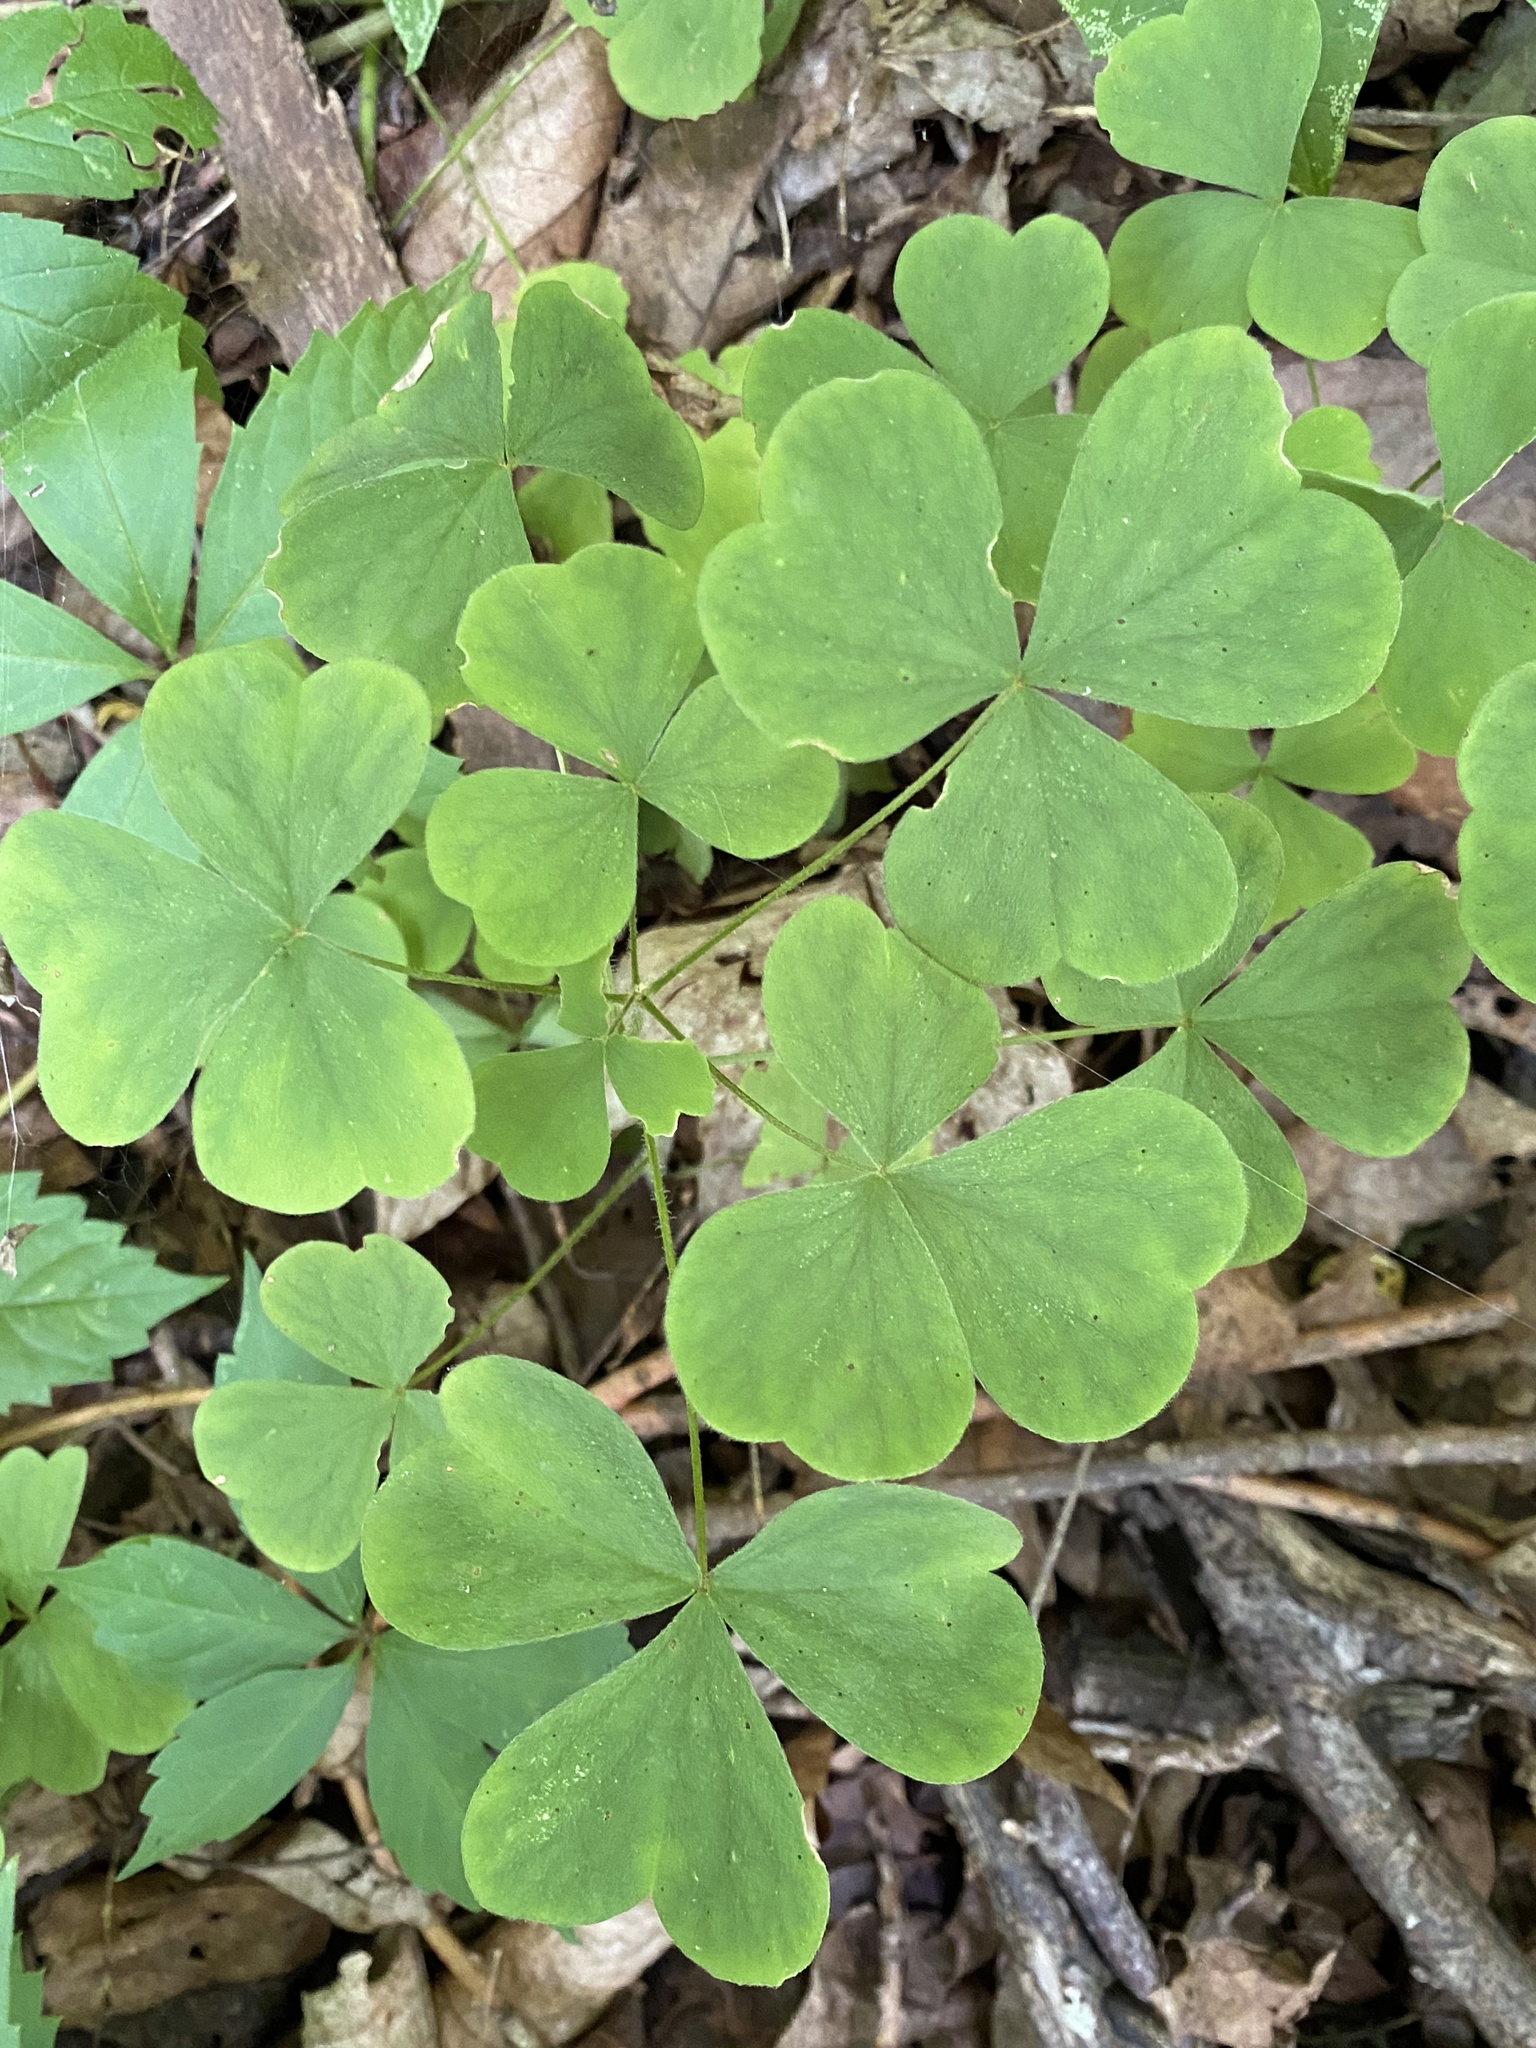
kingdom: Plantae
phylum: Tracheophyta
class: Magnoliopsida
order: Oxalidales
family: Oxalidaceae
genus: Oxalis
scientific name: Oxalis illinoensis
